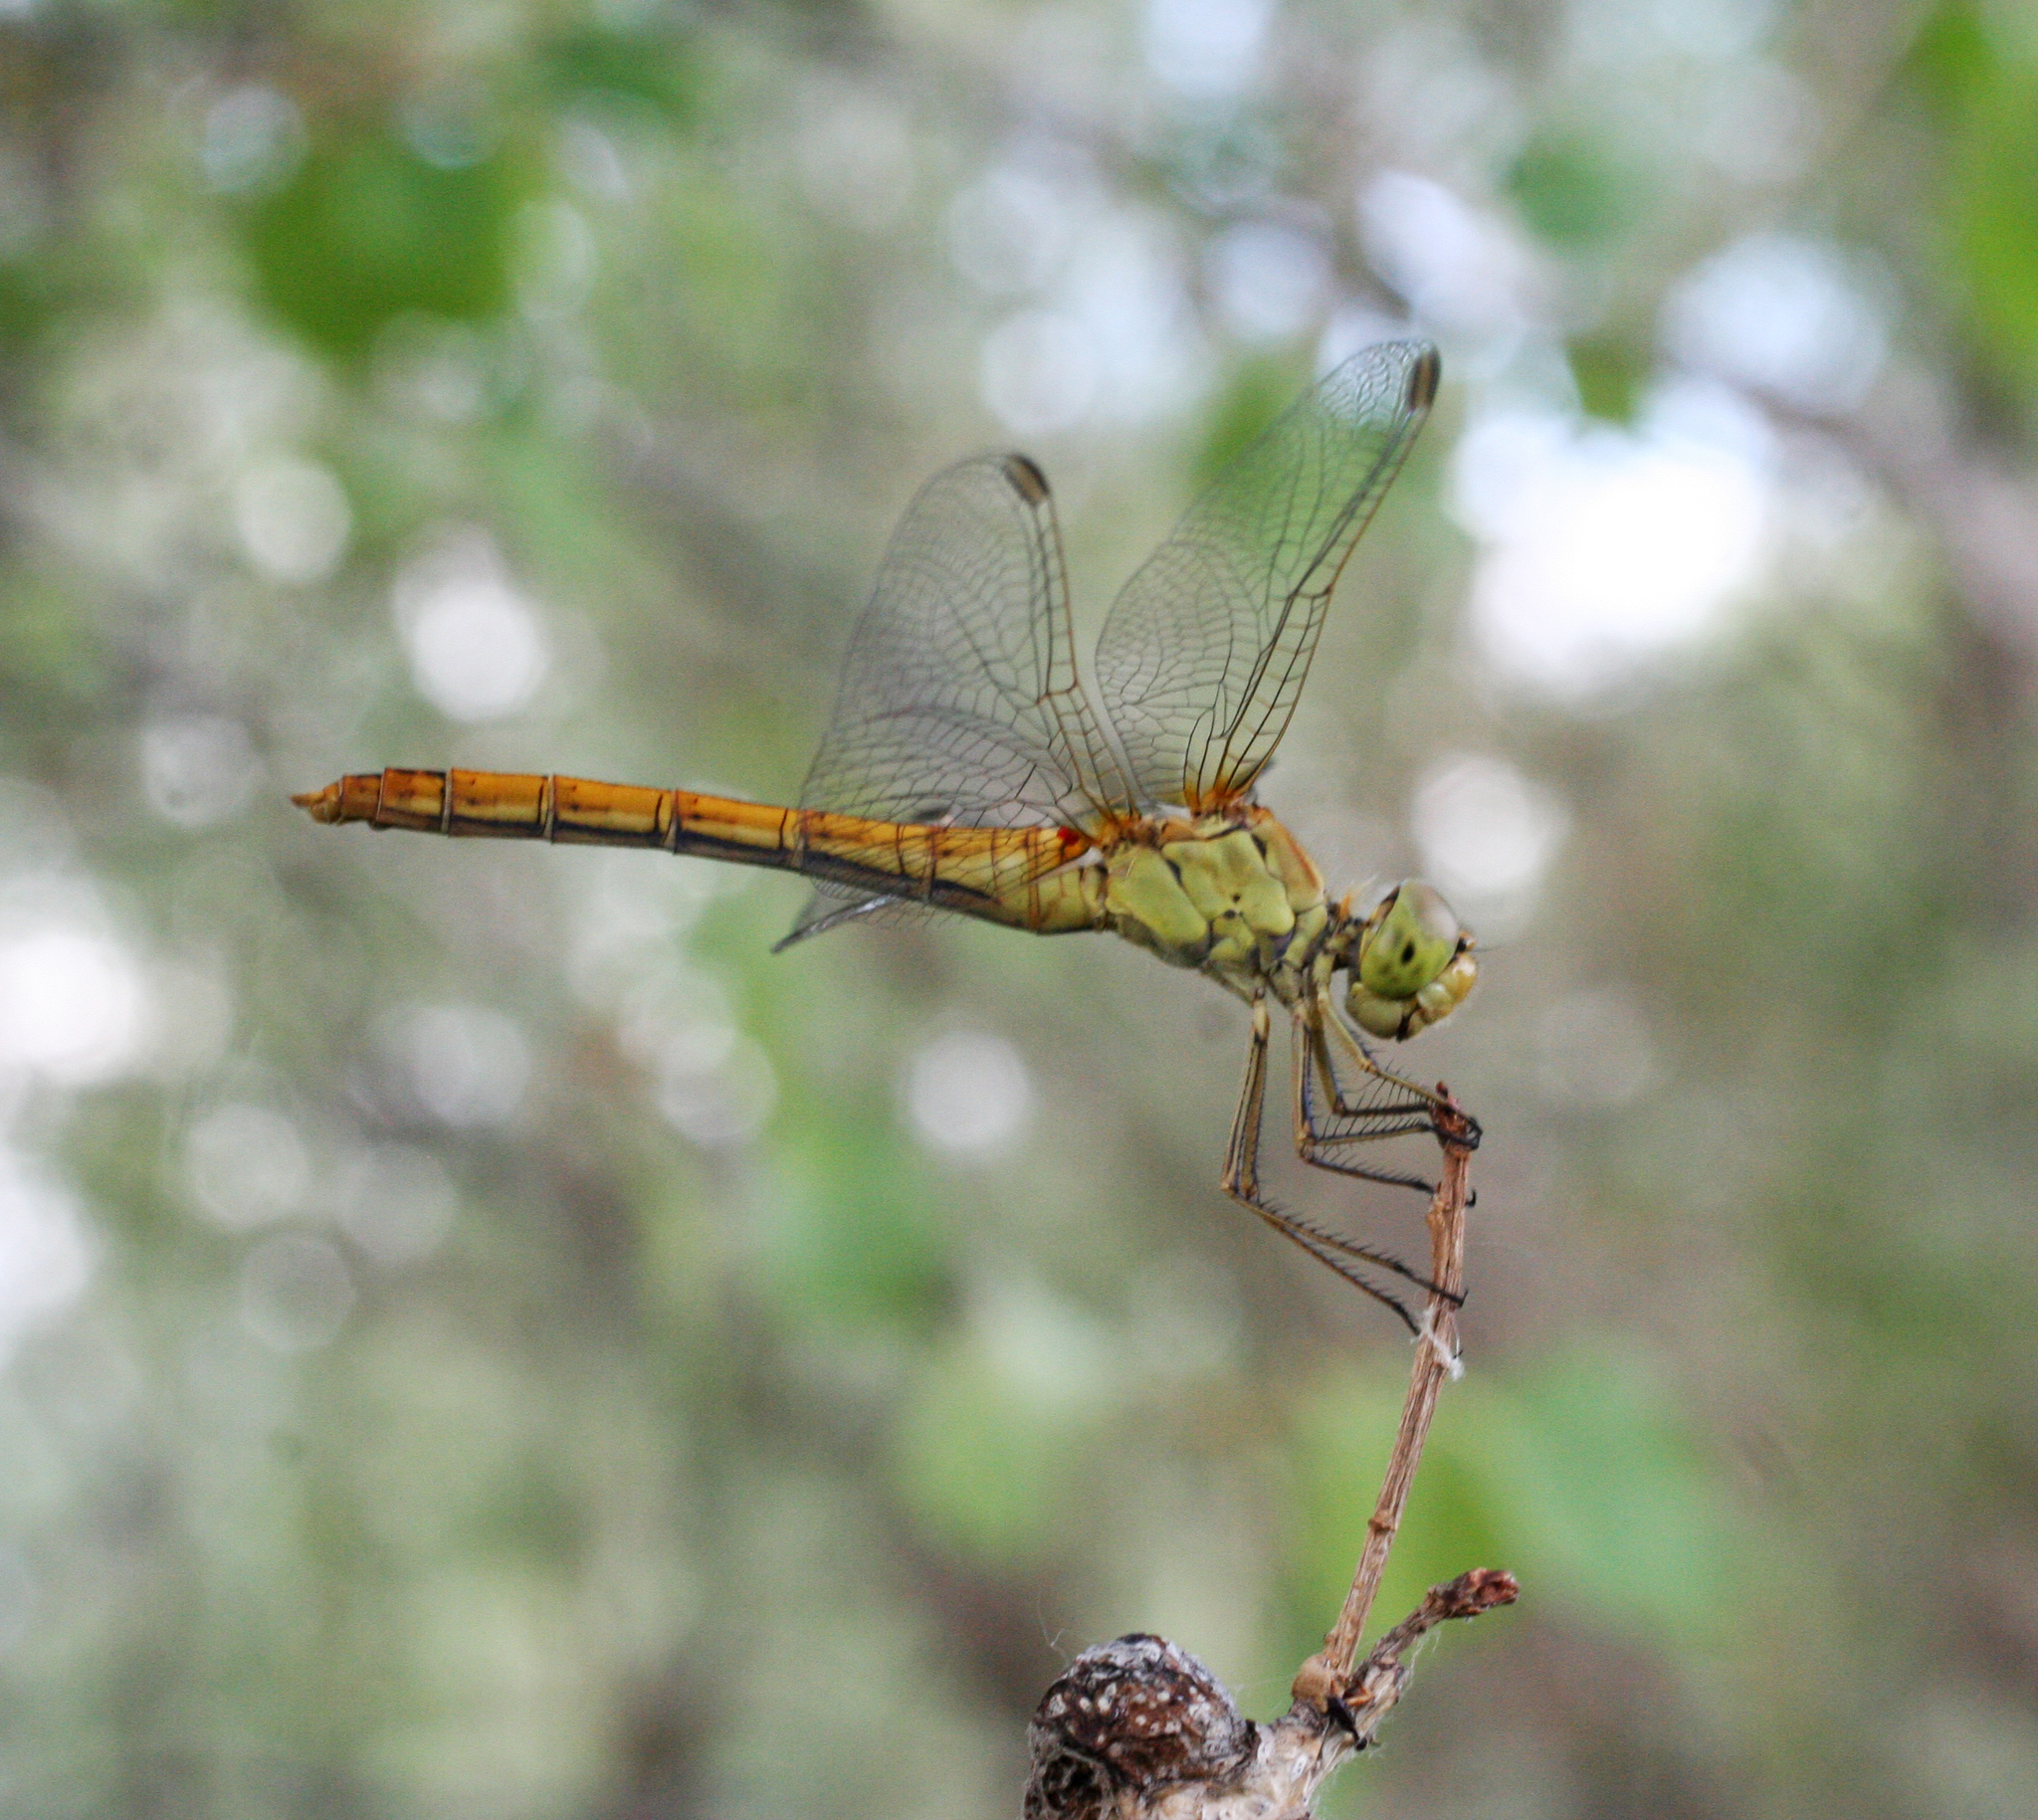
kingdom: Animalia
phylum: Arthropoda
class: Insecta
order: Odonata
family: Libellulidae
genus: Sympetrum
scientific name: Sympetrum meridionale
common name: Southern darter
